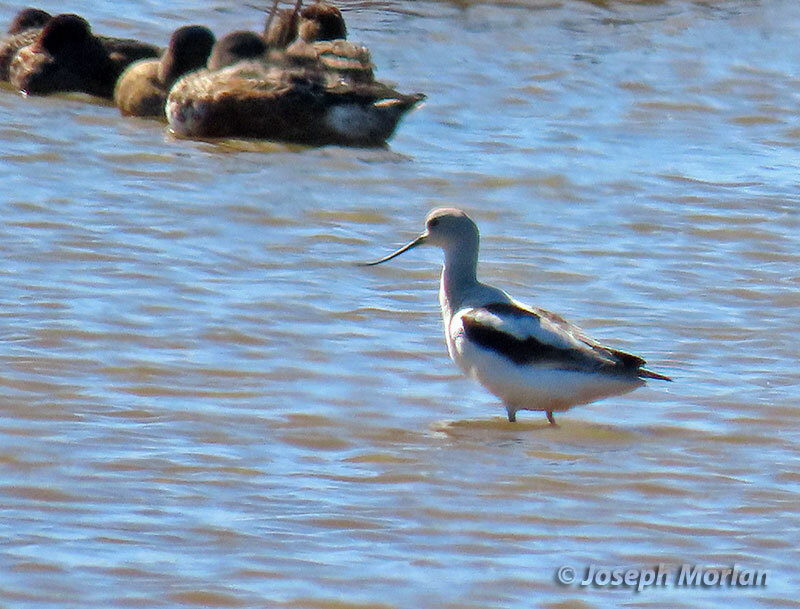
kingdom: Animalia
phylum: Chordata
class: Aves
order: Charadriiformes
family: Recurvirostridae
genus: Recurvirostra
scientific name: Recurvirostra americana
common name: American avocet
